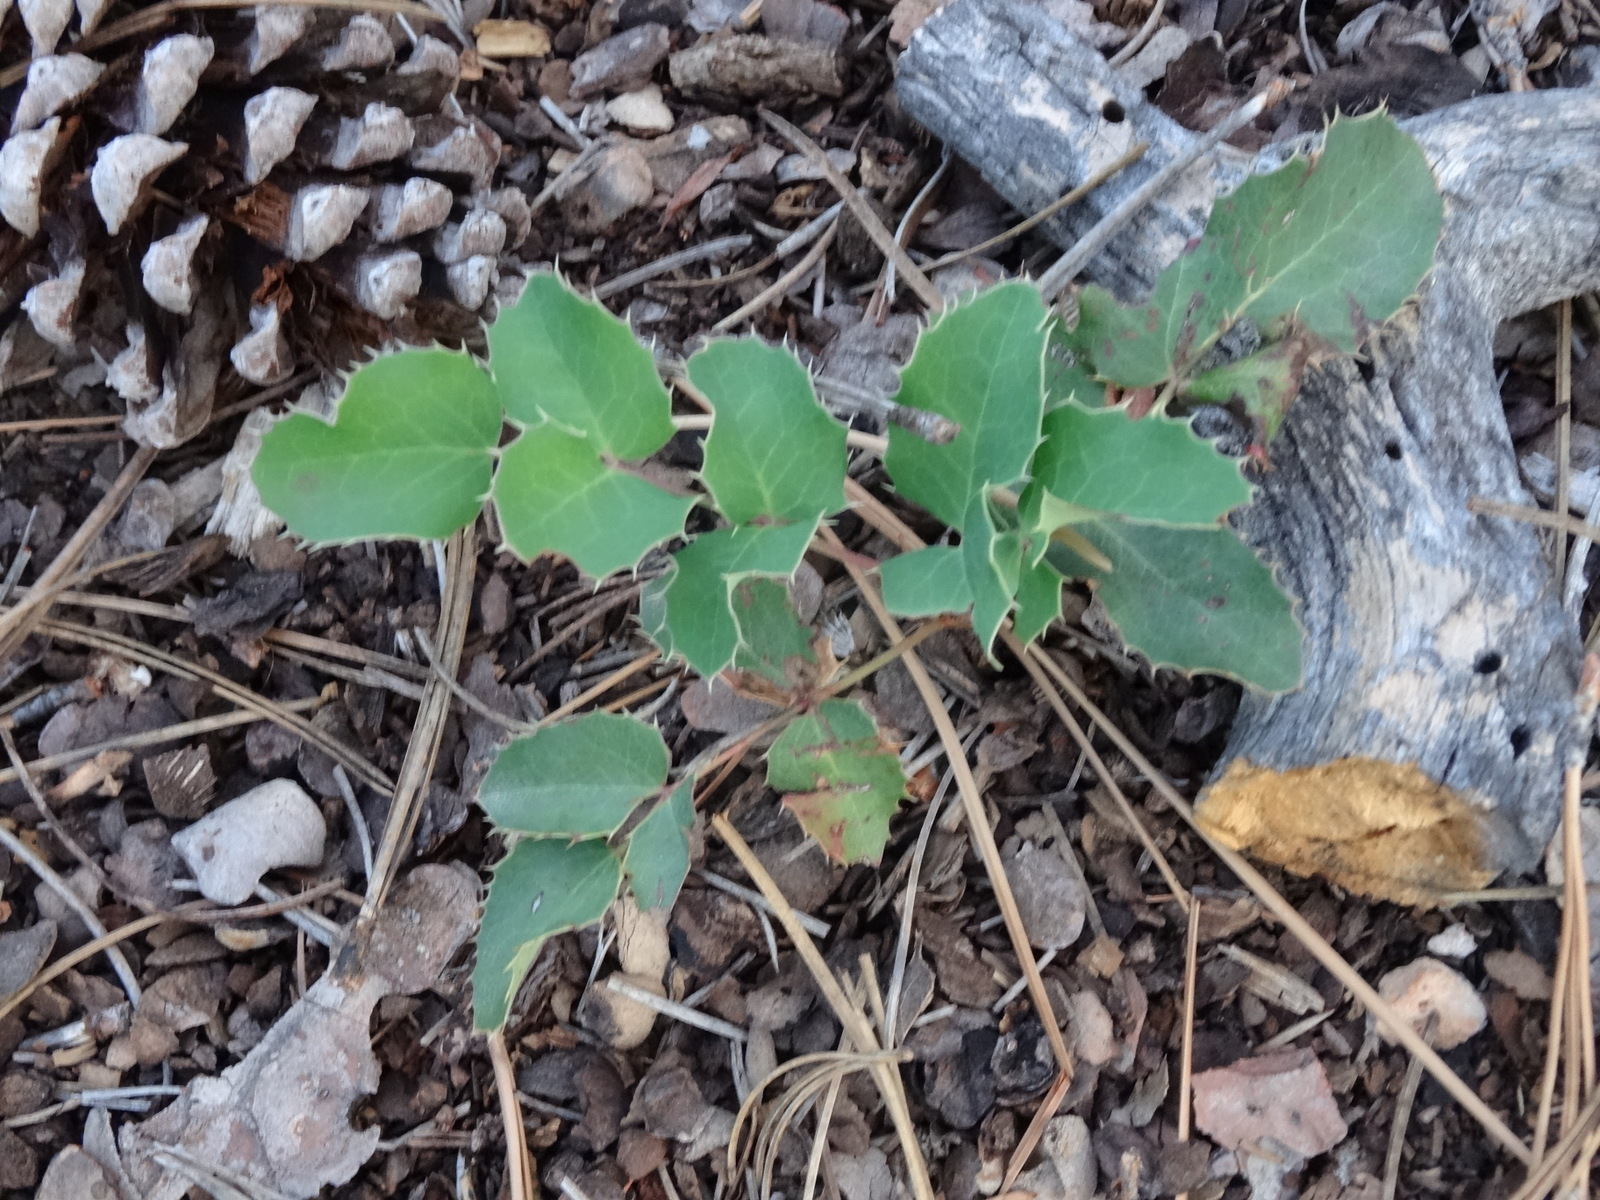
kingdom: Plantae
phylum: Tracheophyta
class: Magnoliopsida
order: Ranunculales
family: Berberidaceae
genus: Mahonia
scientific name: Mahonia repens
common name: Creeping oregon-grape
